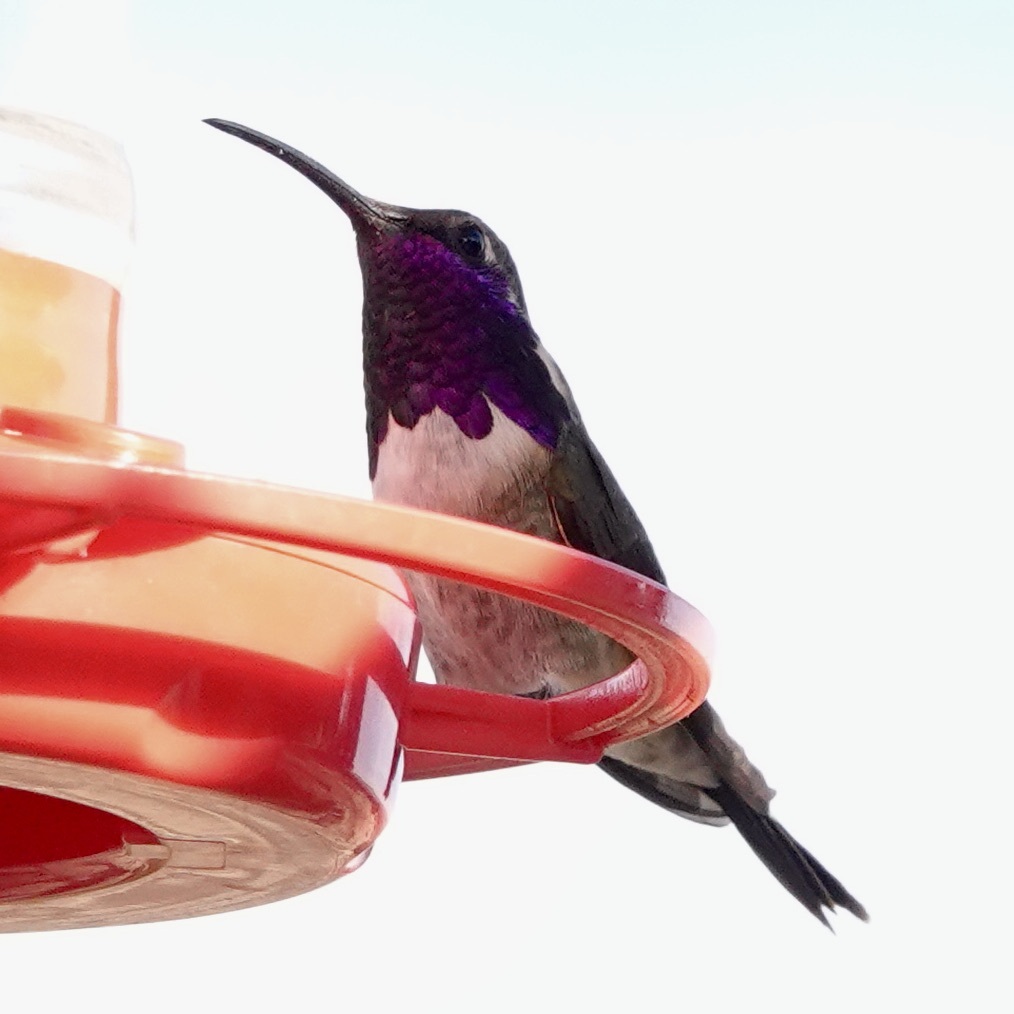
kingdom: Animalia
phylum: Chordata
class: Aves
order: Apodiformes
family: Trochilidae
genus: Calothorax
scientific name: Calothorax lucifer
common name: Lucifer sheartail
